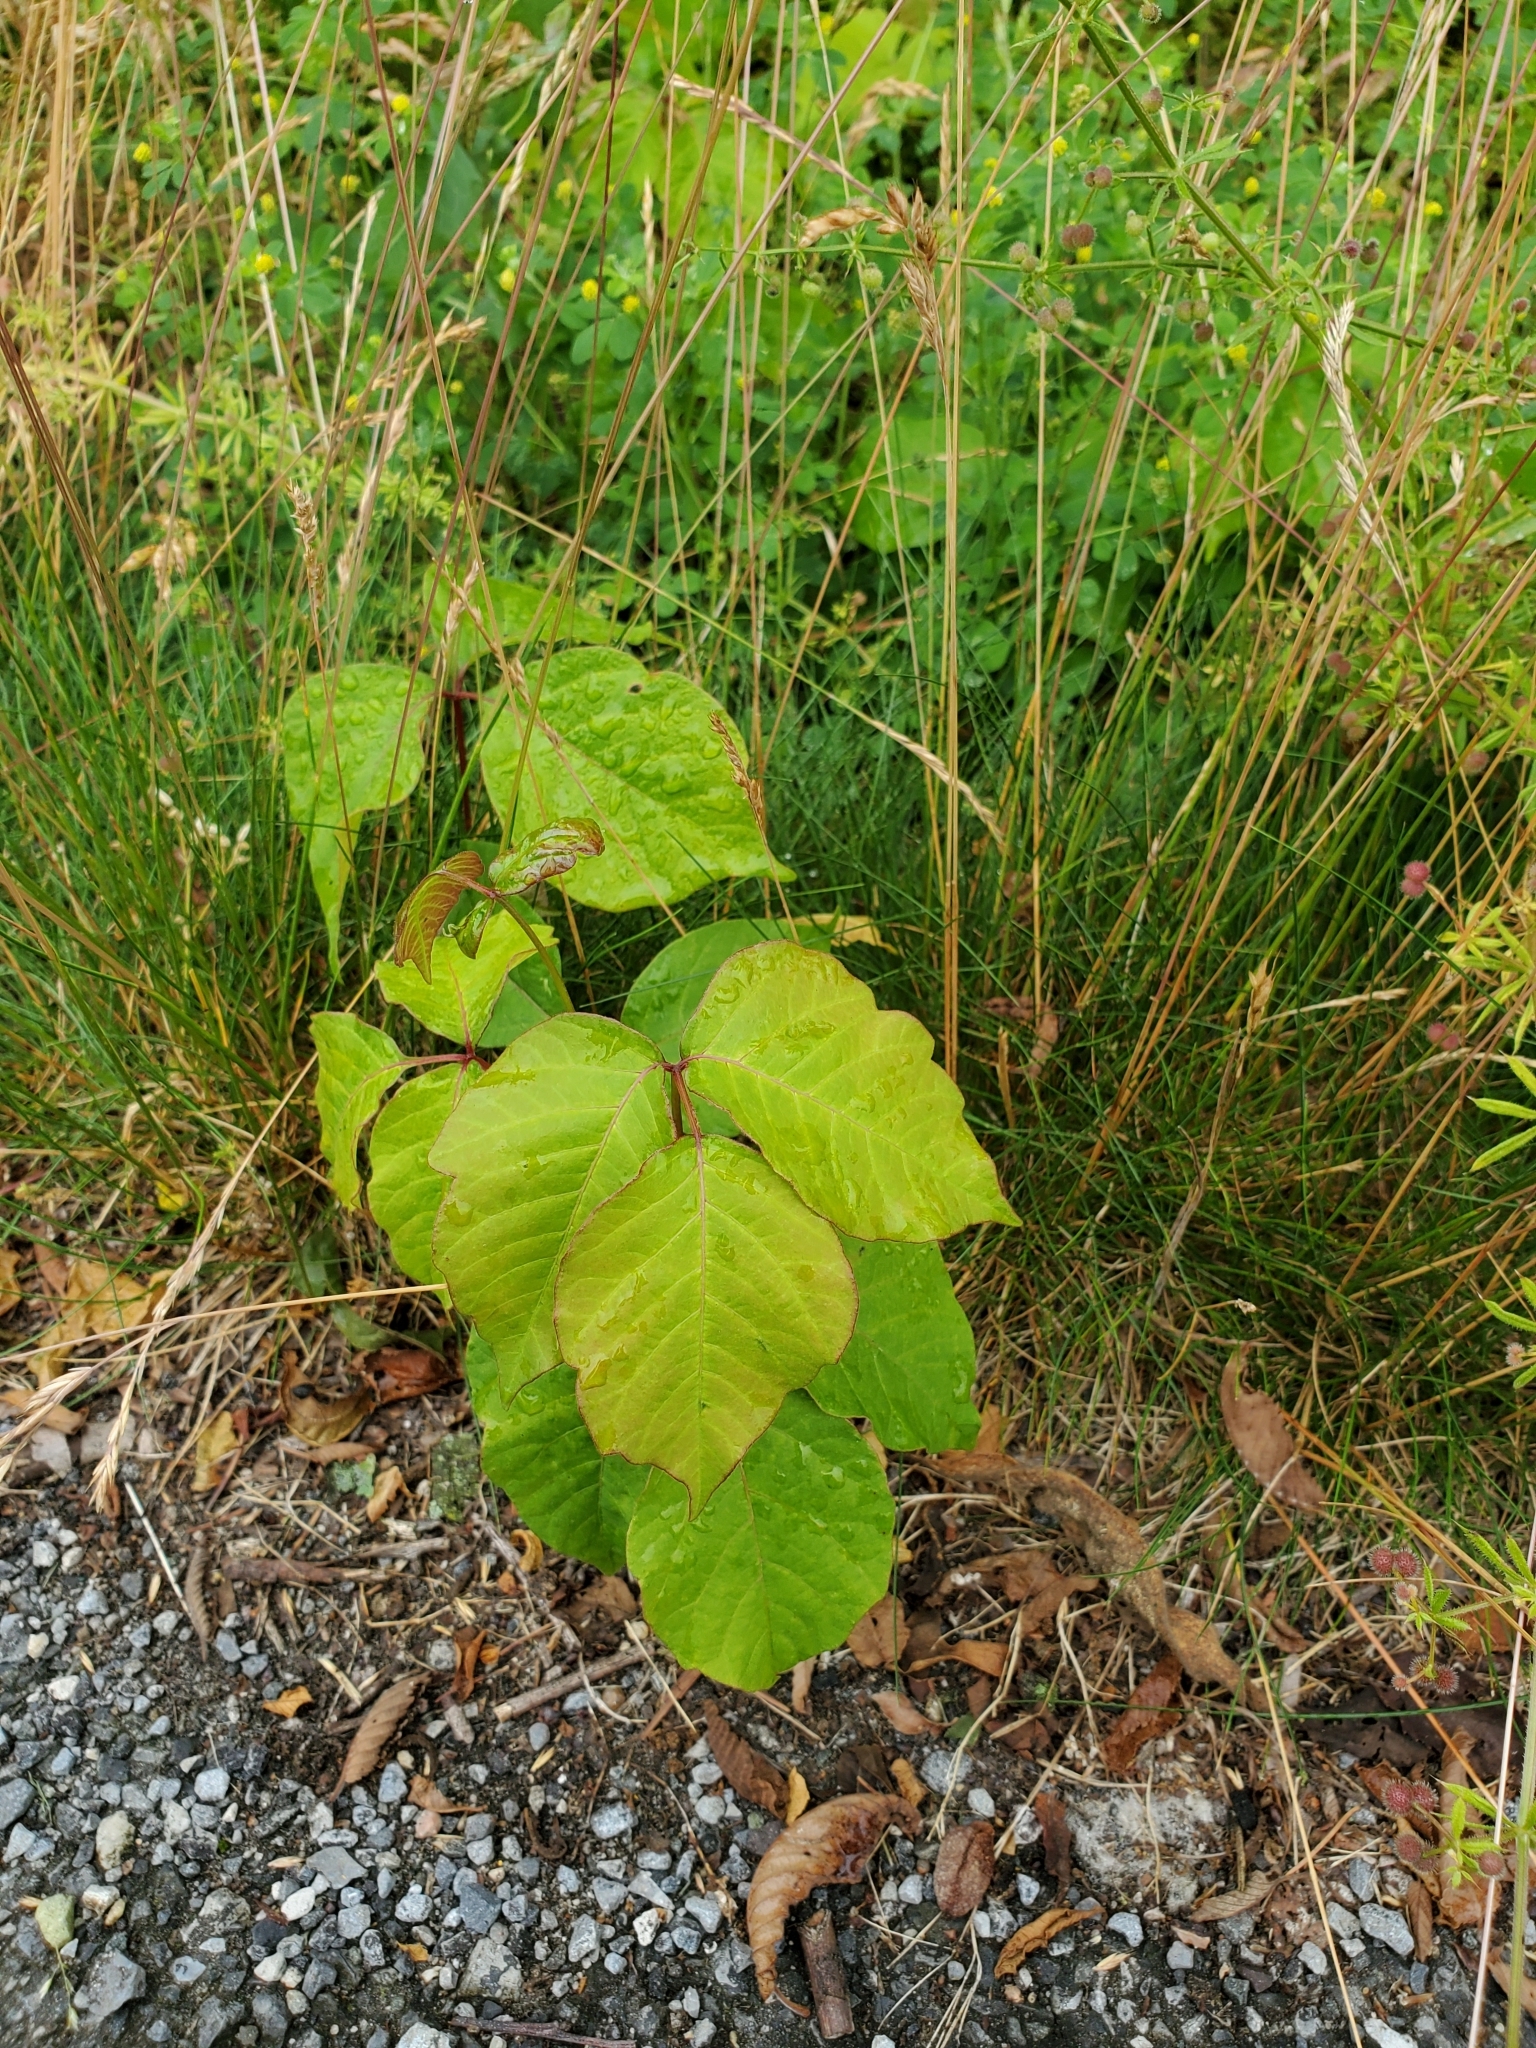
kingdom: Plantae
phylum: Tracheophyta
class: Magnoliopsida
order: Sapindales
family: Anacardiaceae
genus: Toxicodendron
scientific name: Toxicodendron radicans
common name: Poison ivy
